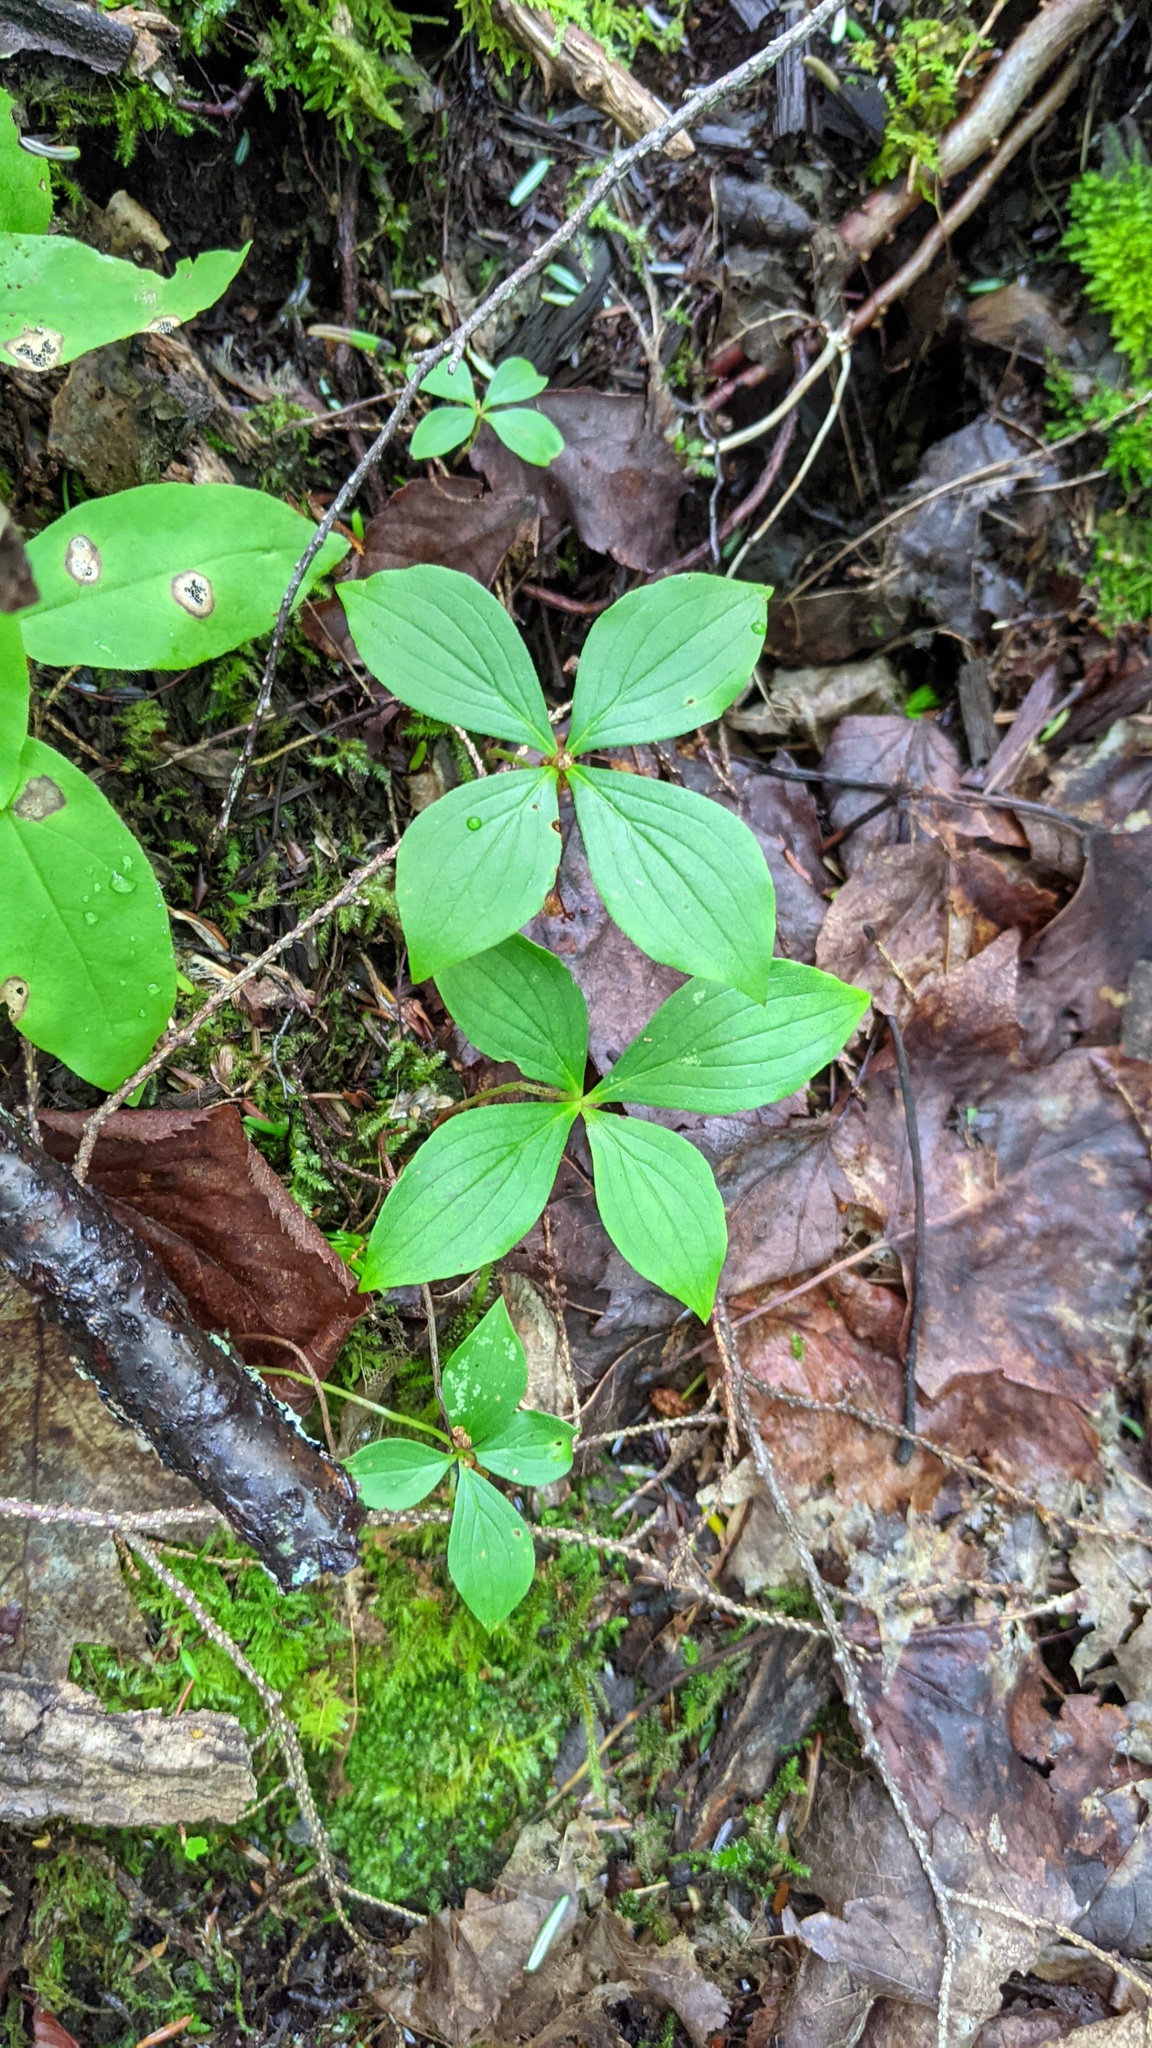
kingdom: Plantae
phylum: Tracheophyta
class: Magnoliopsida
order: Cornales
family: Cornaceae
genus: Cornus
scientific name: Cornus canadensis
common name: Creeping dogwood
